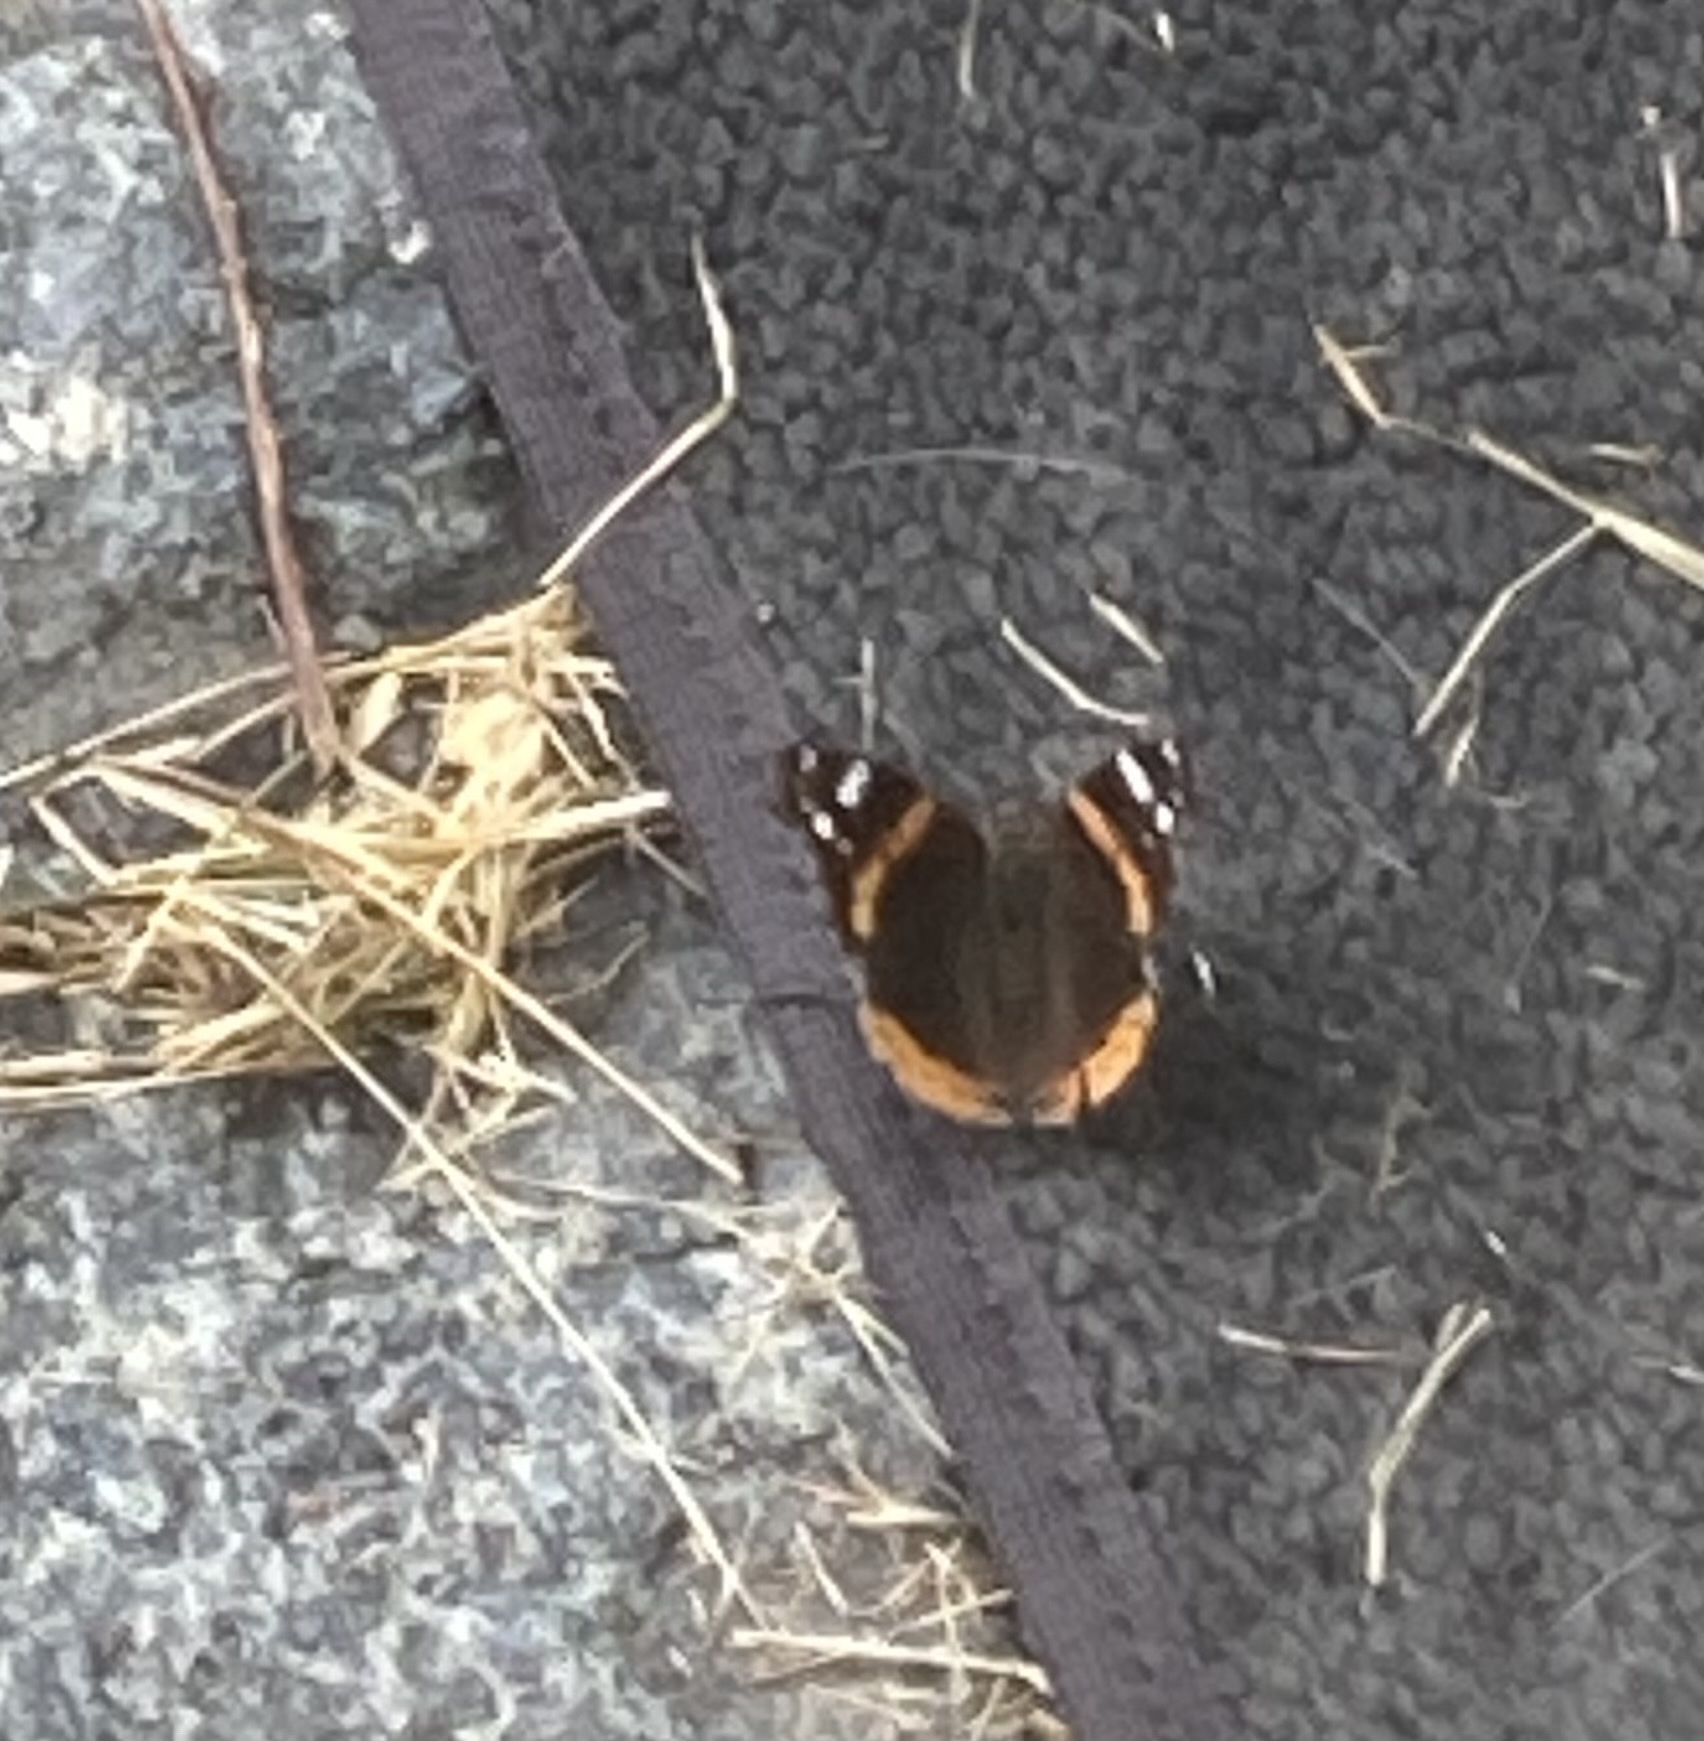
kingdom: Animalia
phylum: Arthropoda
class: Insecta
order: Lepidoptera
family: Nymphalidae
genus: Vanessa
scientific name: Vanessa atalanta
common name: Red admiral
